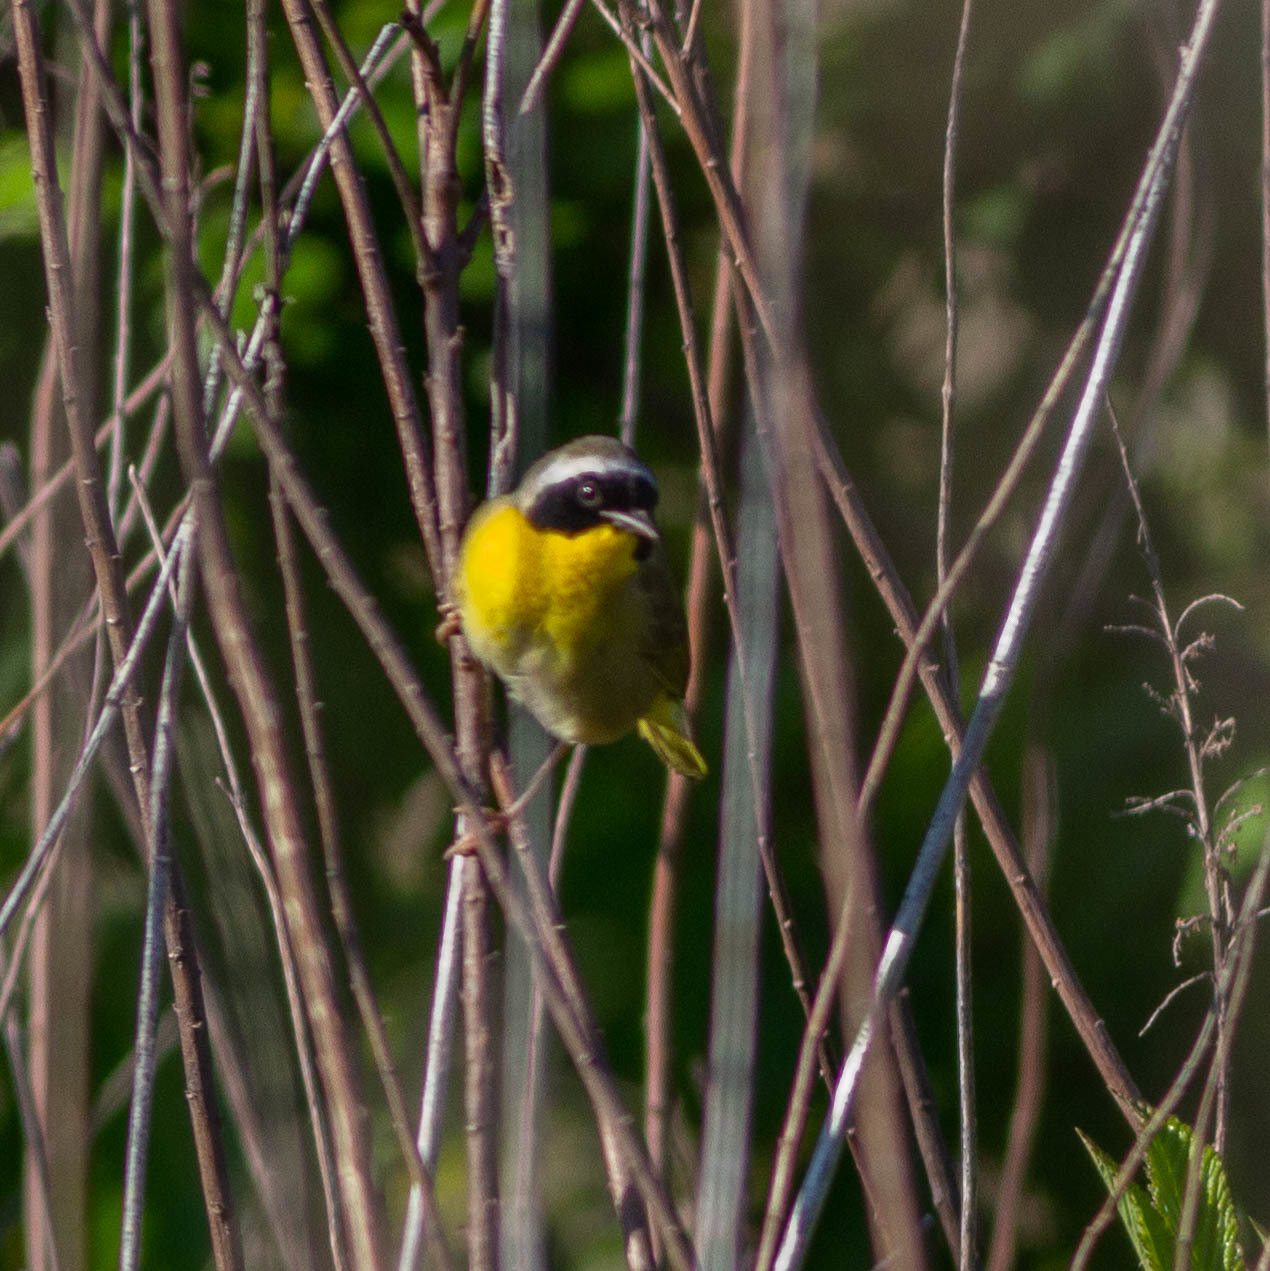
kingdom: Animalia
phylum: Chordata
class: Aves
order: Passeriformes
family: Parulidae
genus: Geothlypis
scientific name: Geothlypis trichas
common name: Common yellowthroat
